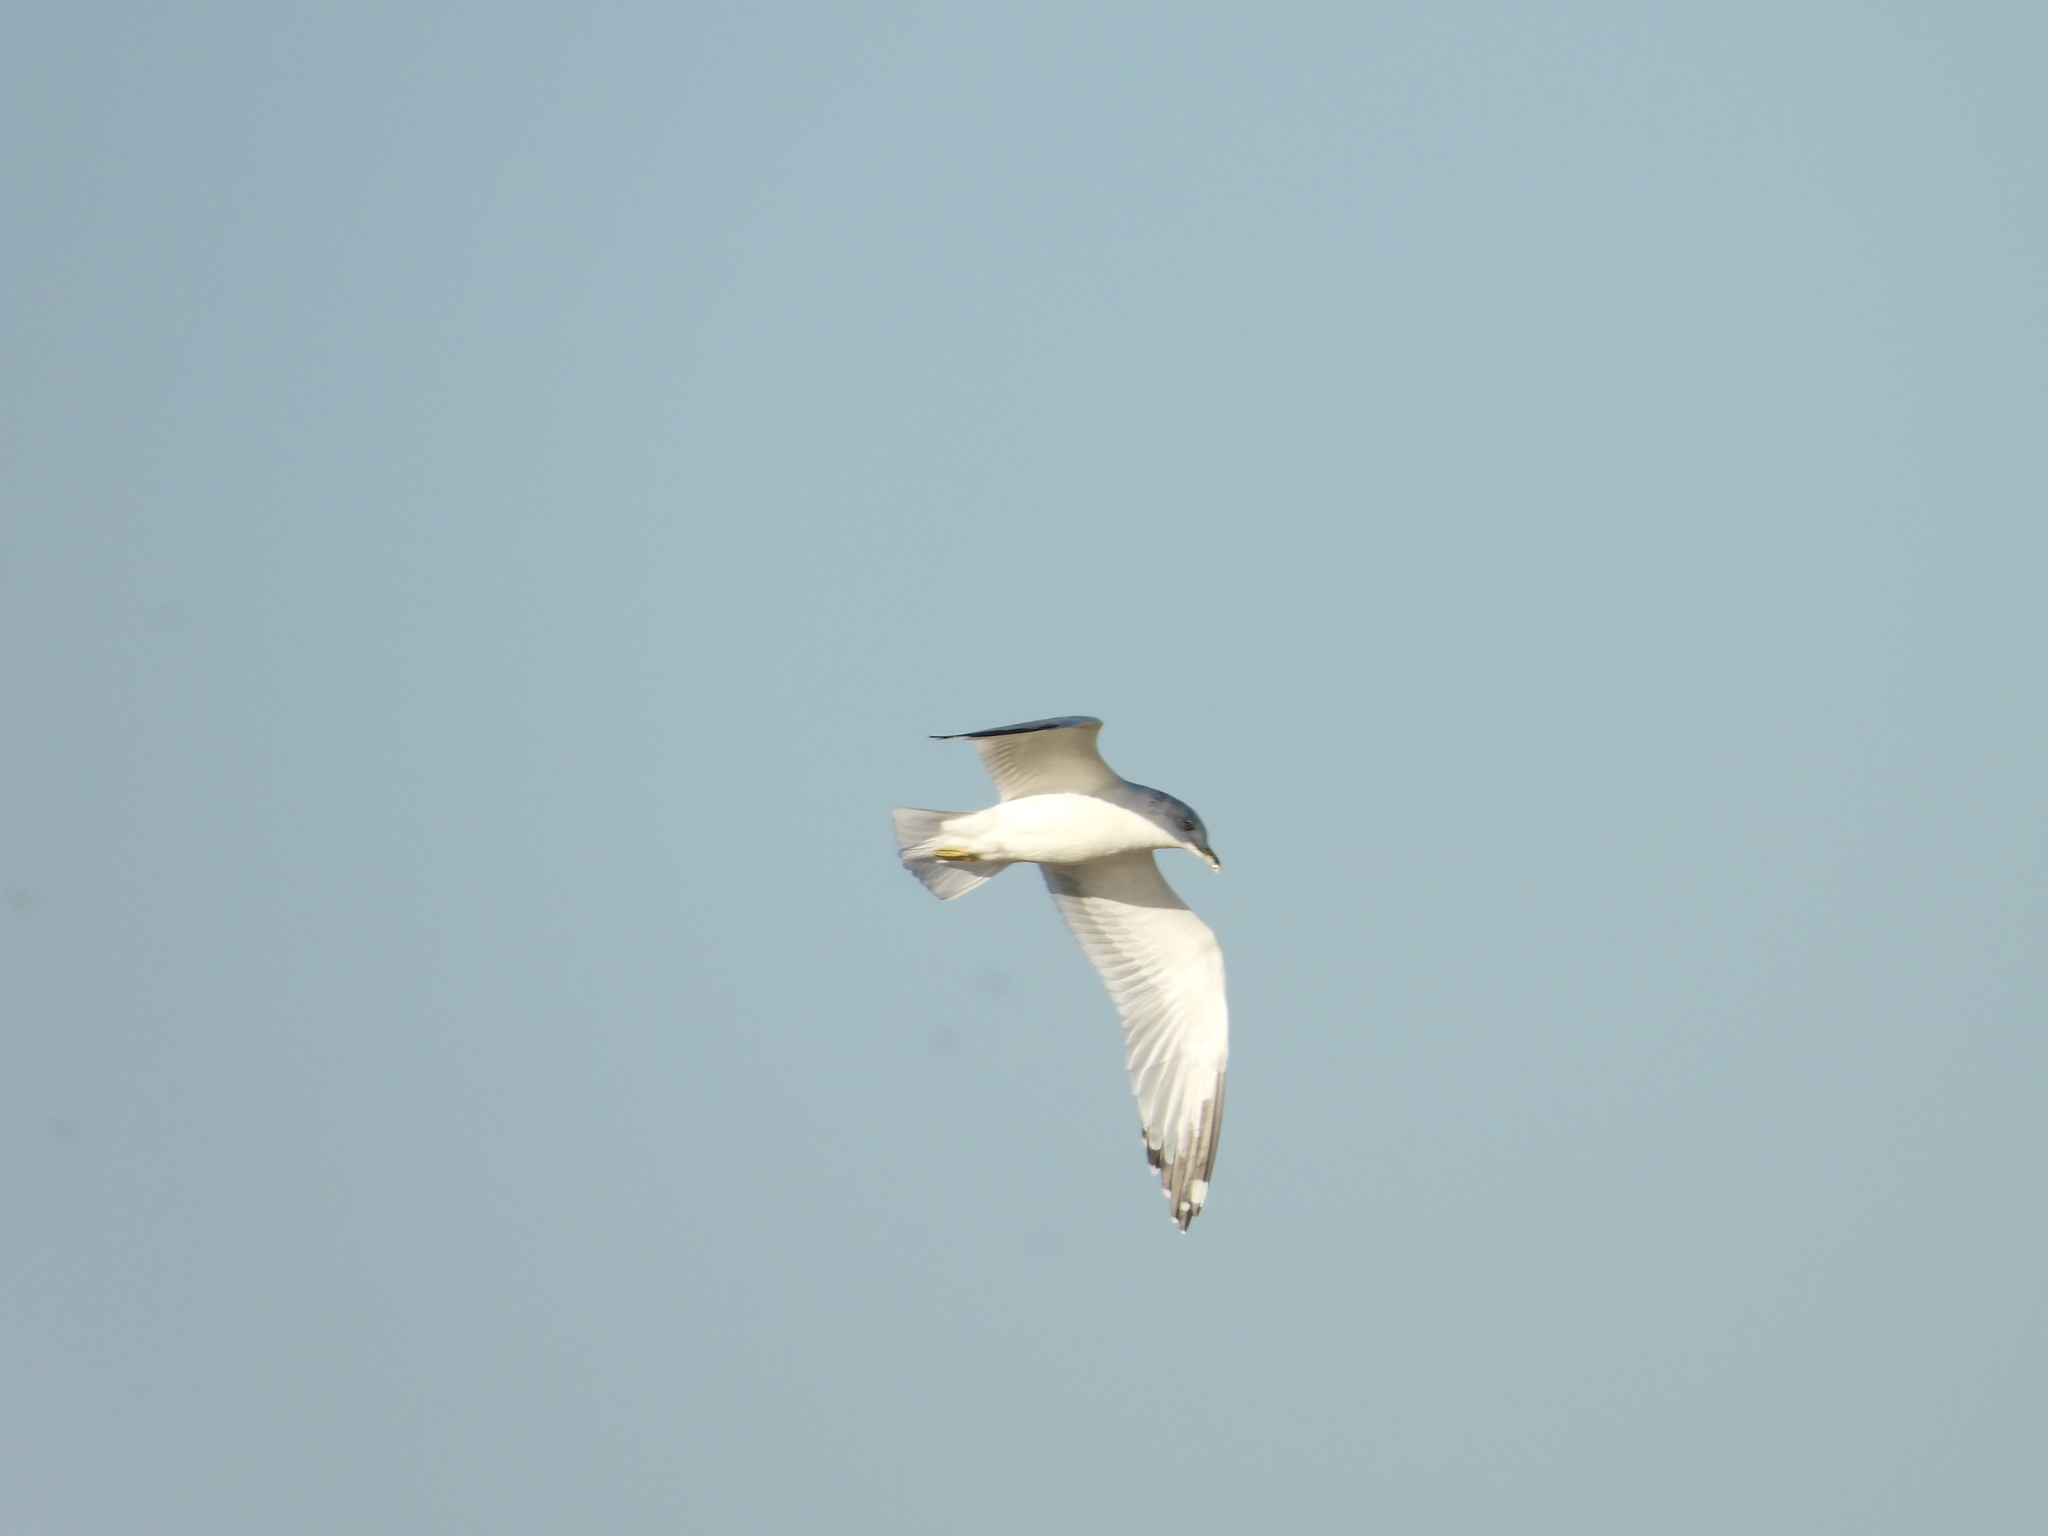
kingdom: Animalia
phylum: Chordata
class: Aves
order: Charadriiformes
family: Laridae
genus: Larus
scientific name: Larus delawarensis
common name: Ring-billed gull
